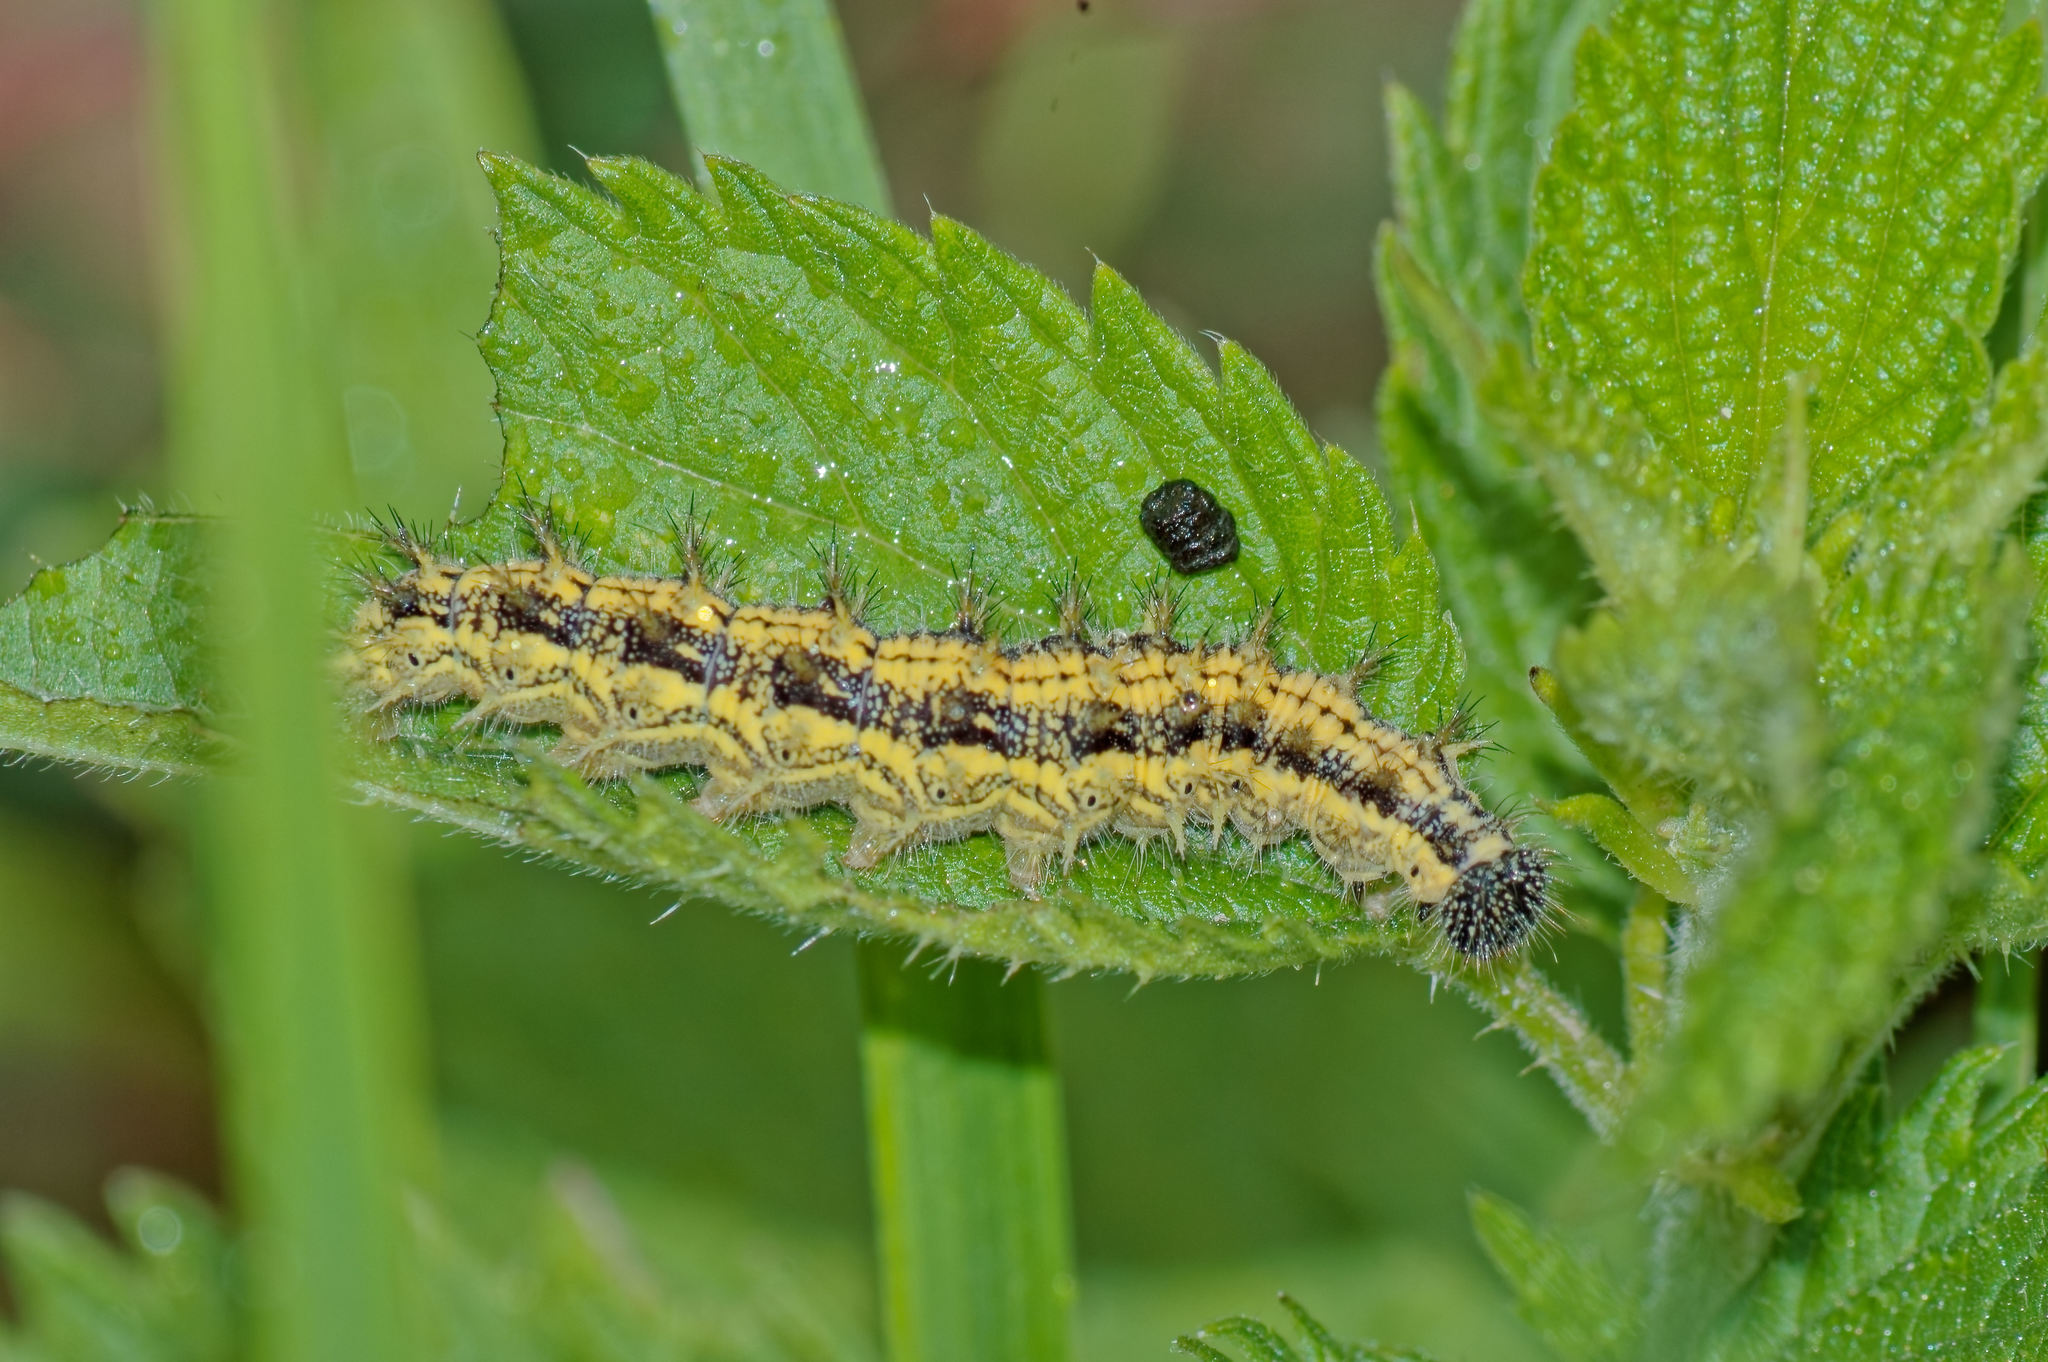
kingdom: Animalia
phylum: Arthropoda
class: Insecta
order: Lepidoptera
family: Nymphalidae
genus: Aglais
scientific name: Aglais urticae
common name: Small tortoiseshell
